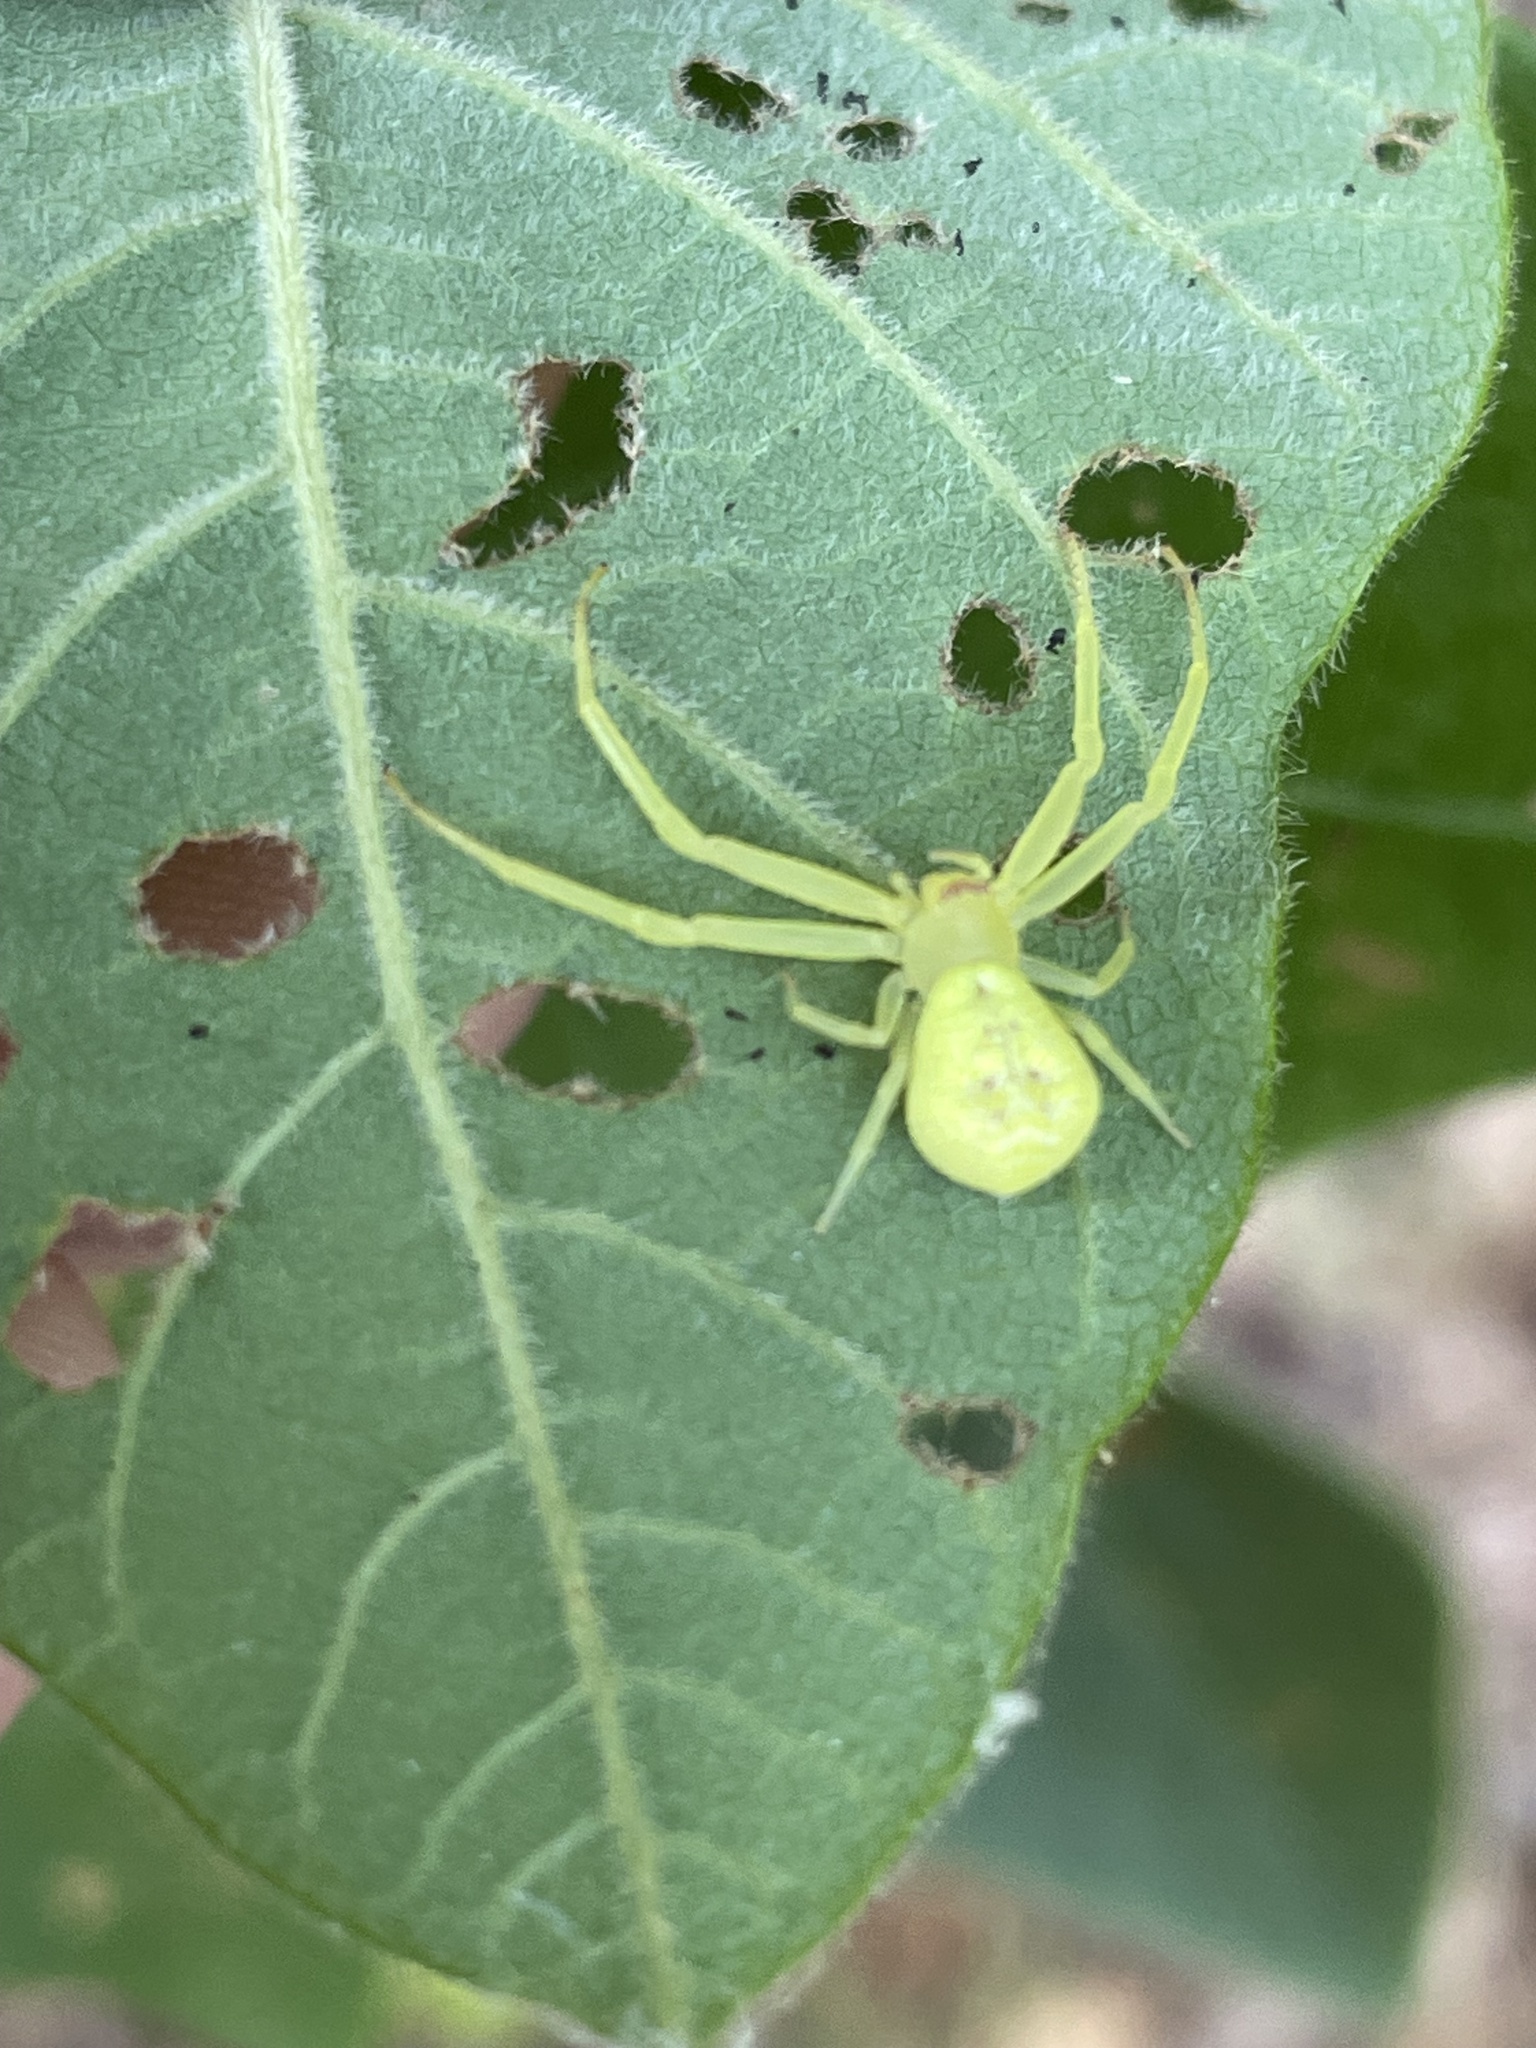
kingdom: Animalia
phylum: Arthropoda
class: Arachnida
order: Araneae
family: Thomisidae
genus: Misumessus
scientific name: Misumessus oblongus
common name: American green crab spider
